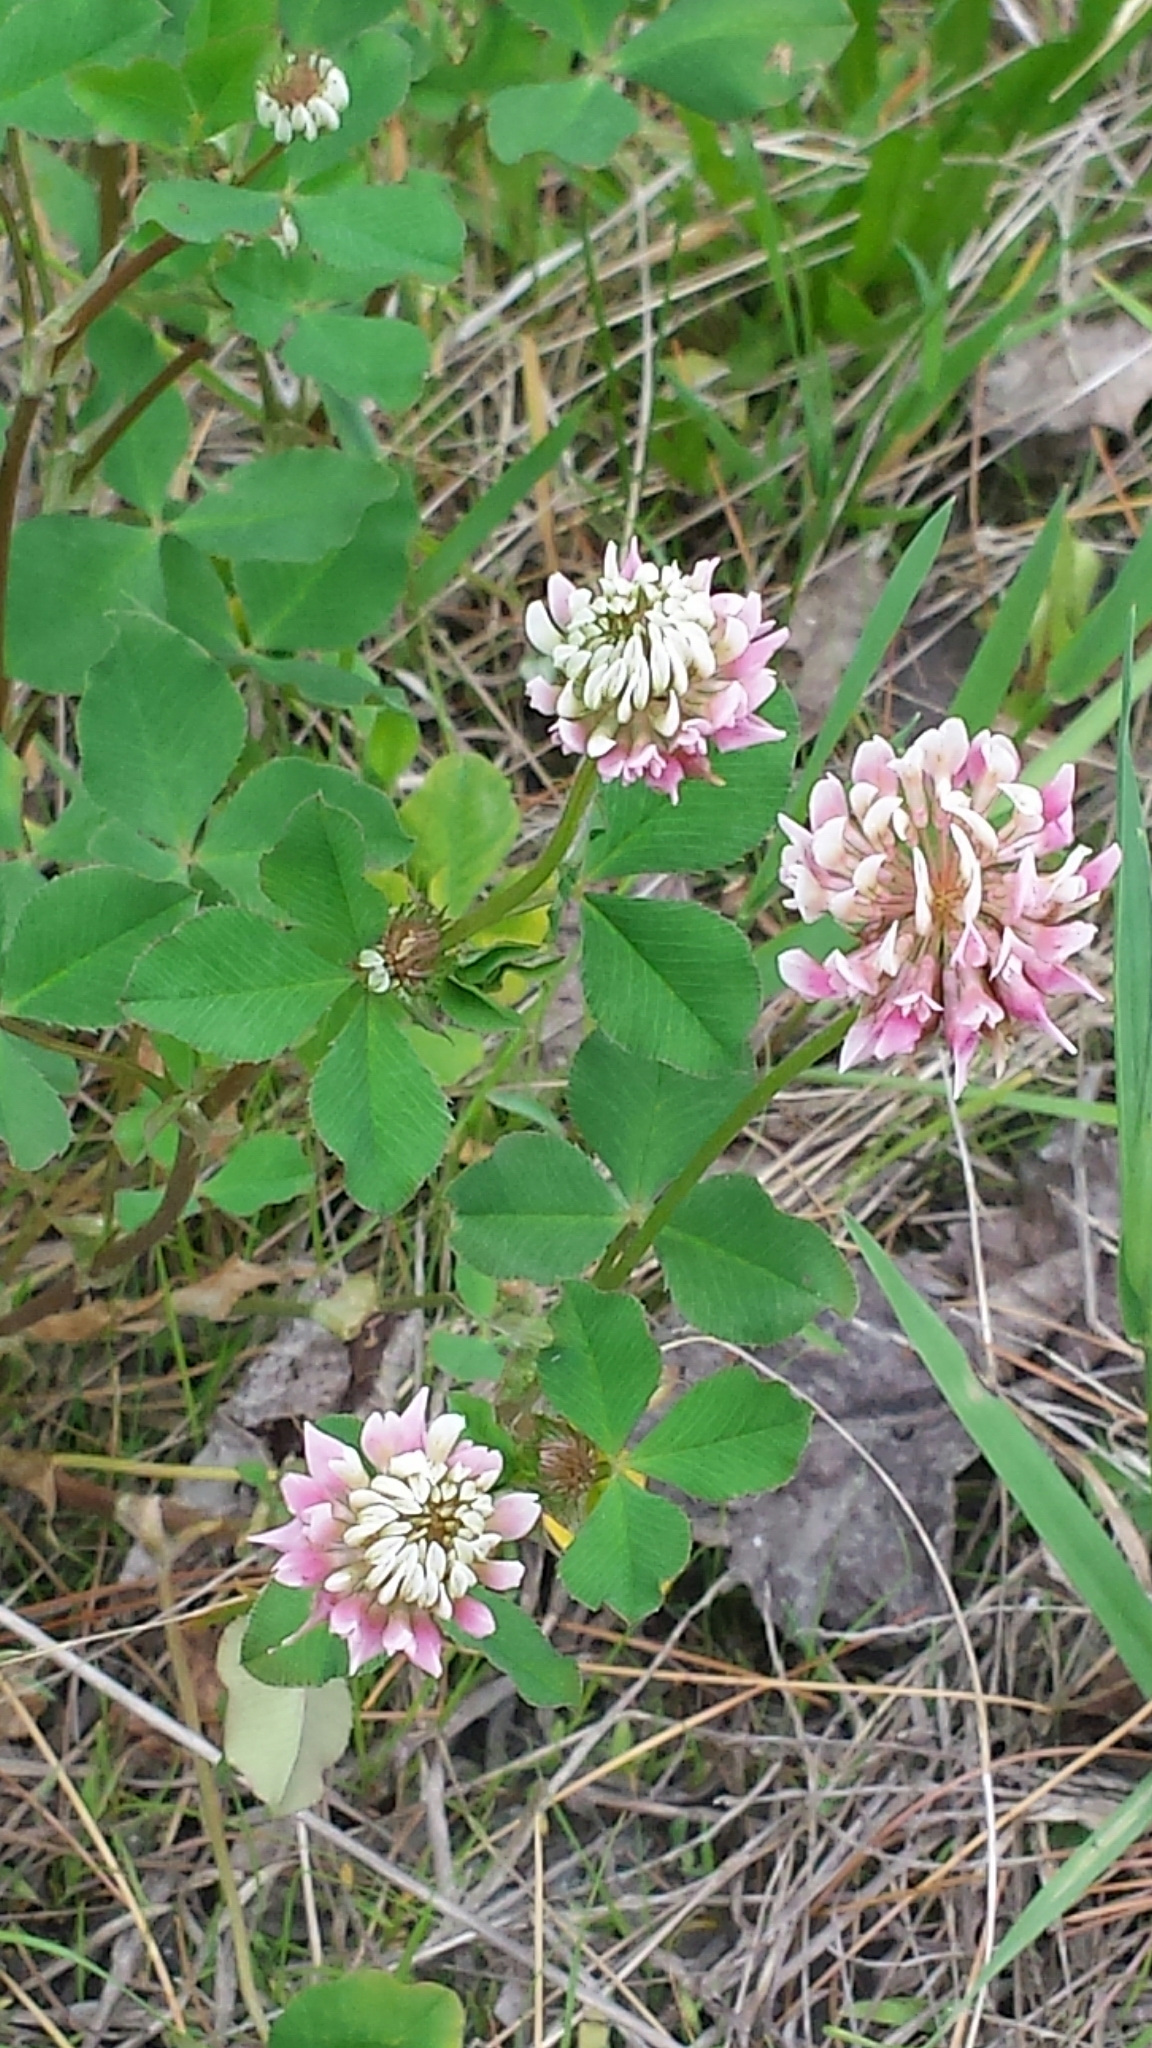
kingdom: Plantae
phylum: Tracheophyta
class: Magnoliopsida
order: Fabales
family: Fabaceae
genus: Trifolium
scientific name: Trifolium hybridum
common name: Alsike clover
